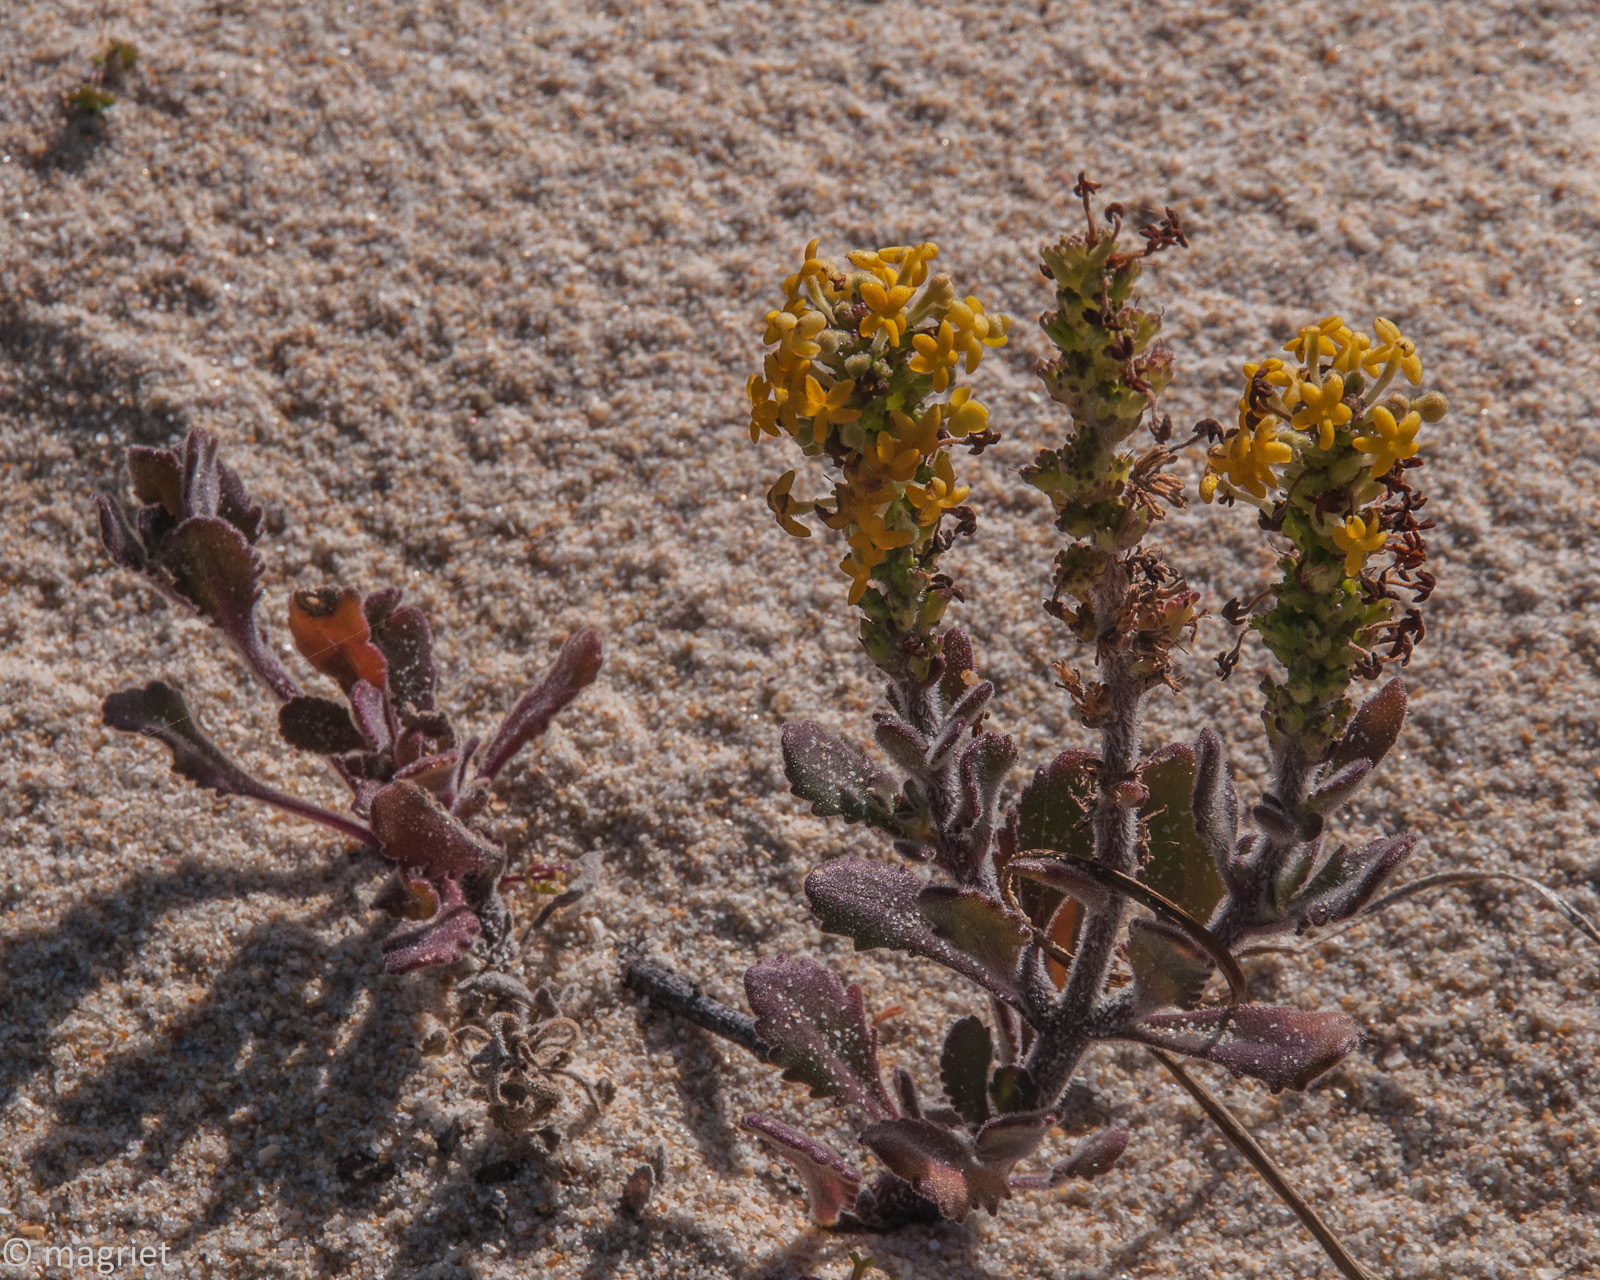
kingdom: Plantae
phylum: Tracheophyta
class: Magnoliopsida
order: Lamiales
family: Scrophulariaceae
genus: Manulea
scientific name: Manulea tomentosa
